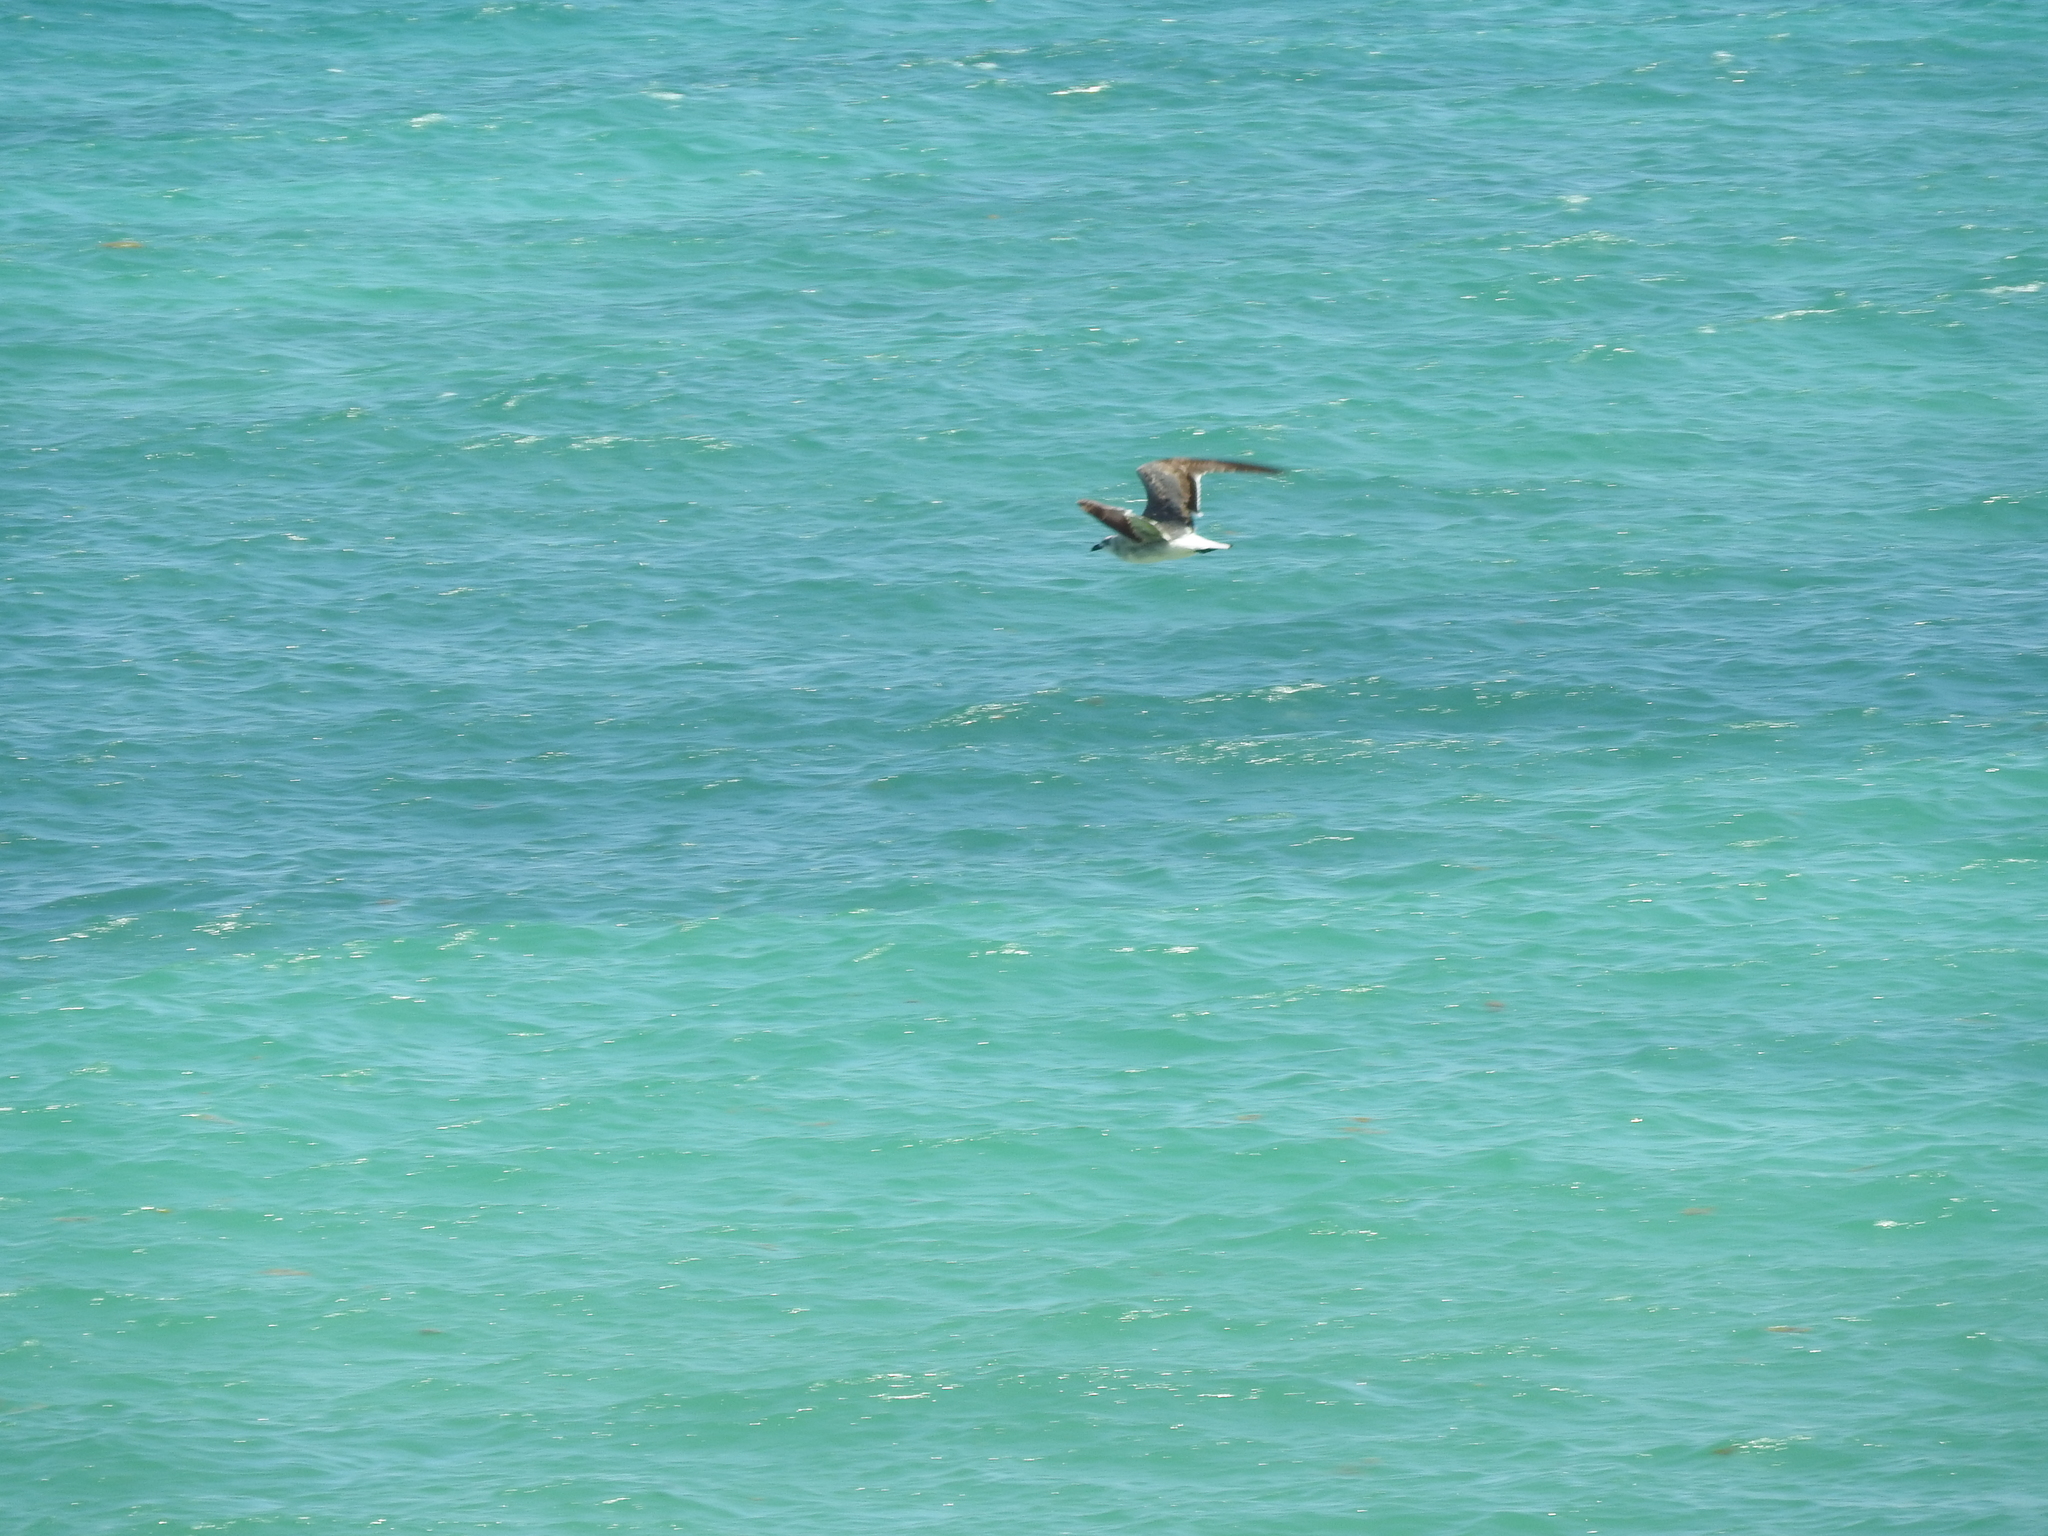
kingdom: Animalia
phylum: Chordata
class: Aves
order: Charadriiformes
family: Laridae
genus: Leucophaeus
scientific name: Leucophaeus atricilla
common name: Laughing gull
